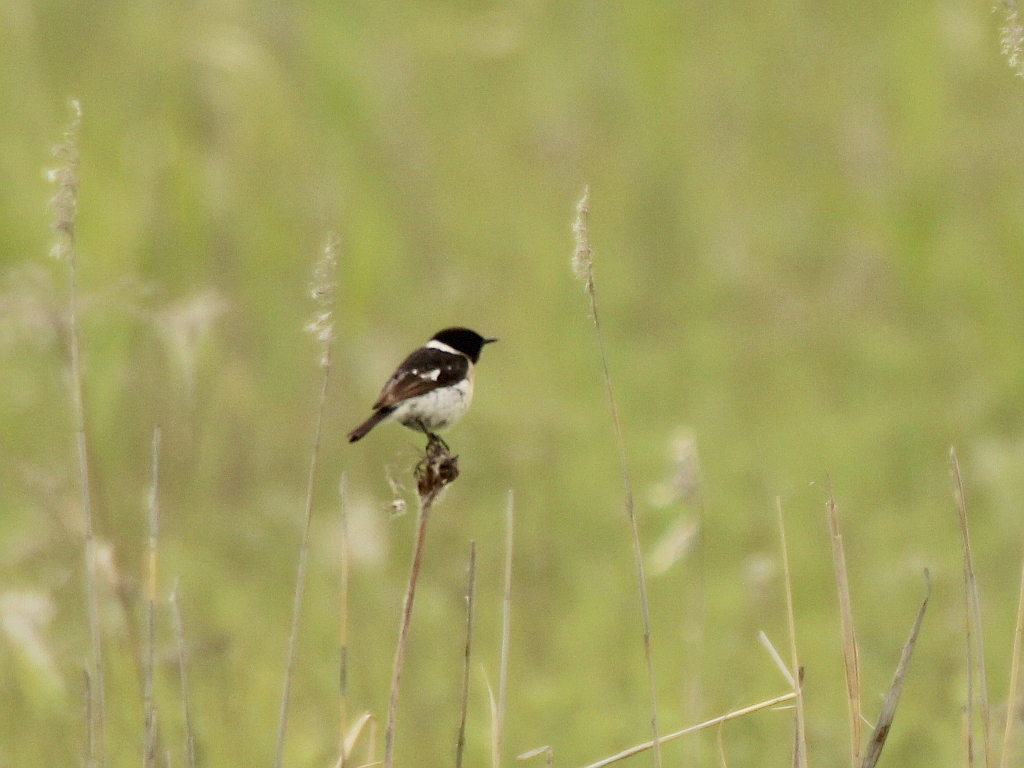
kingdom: Animalia
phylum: Chordata
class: Aves
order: Passeriformes
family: Muscicapidae
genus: Saxicola
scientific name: Saxicola maurus
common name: Siberian stonechat
